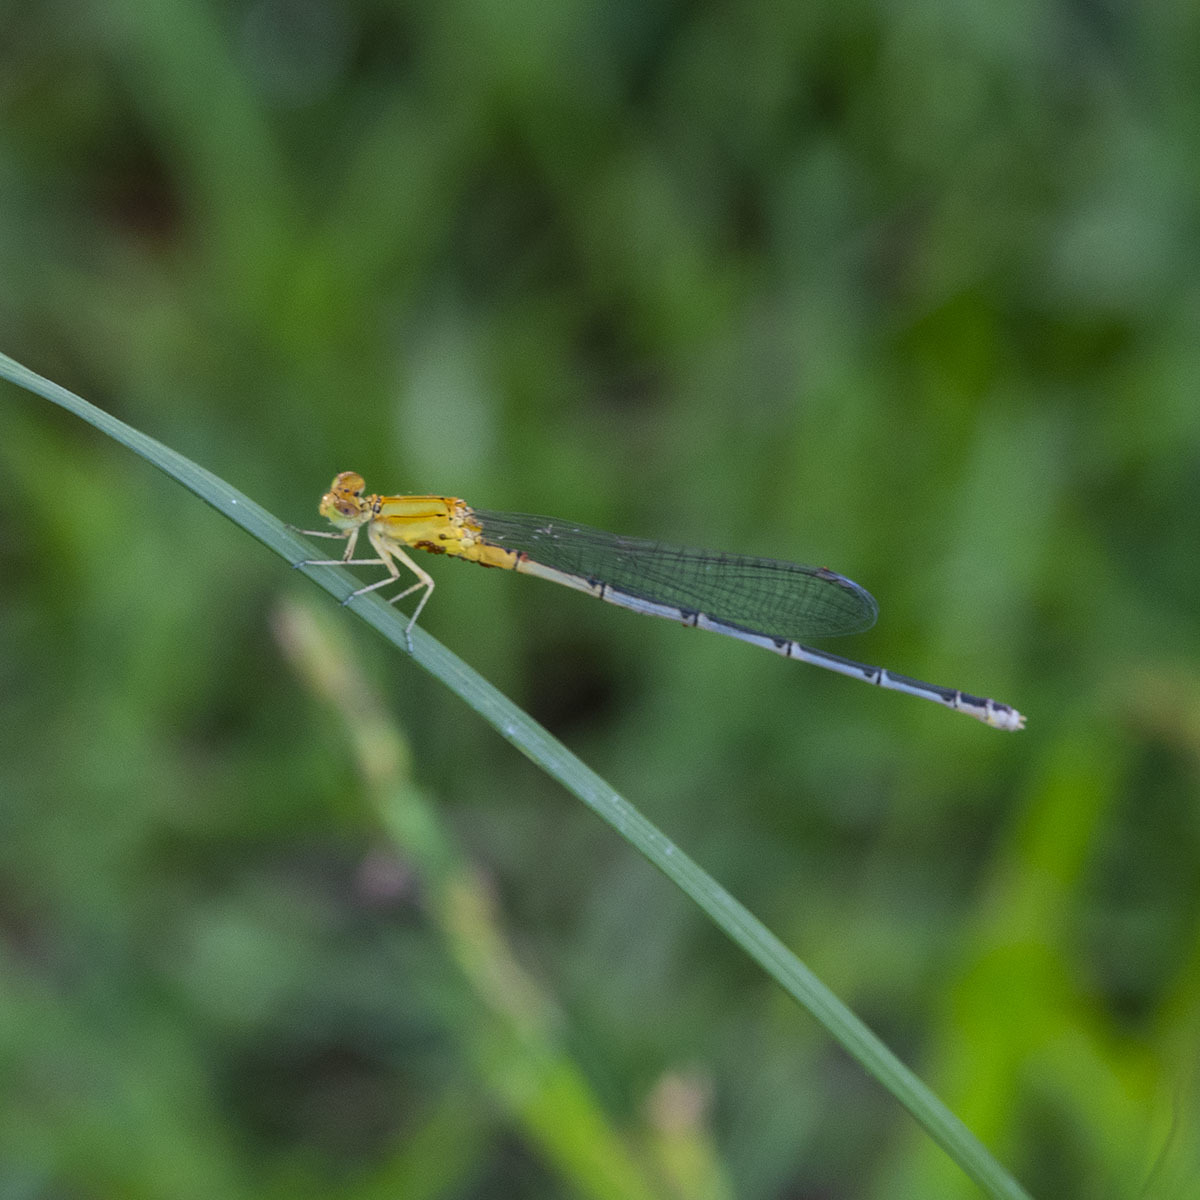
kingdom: Animalia
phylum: Arthropoda
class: Insecta
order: Odonata
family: Coenagrionidae
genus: Pseudagrion
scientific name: Pseudagrion decorum
